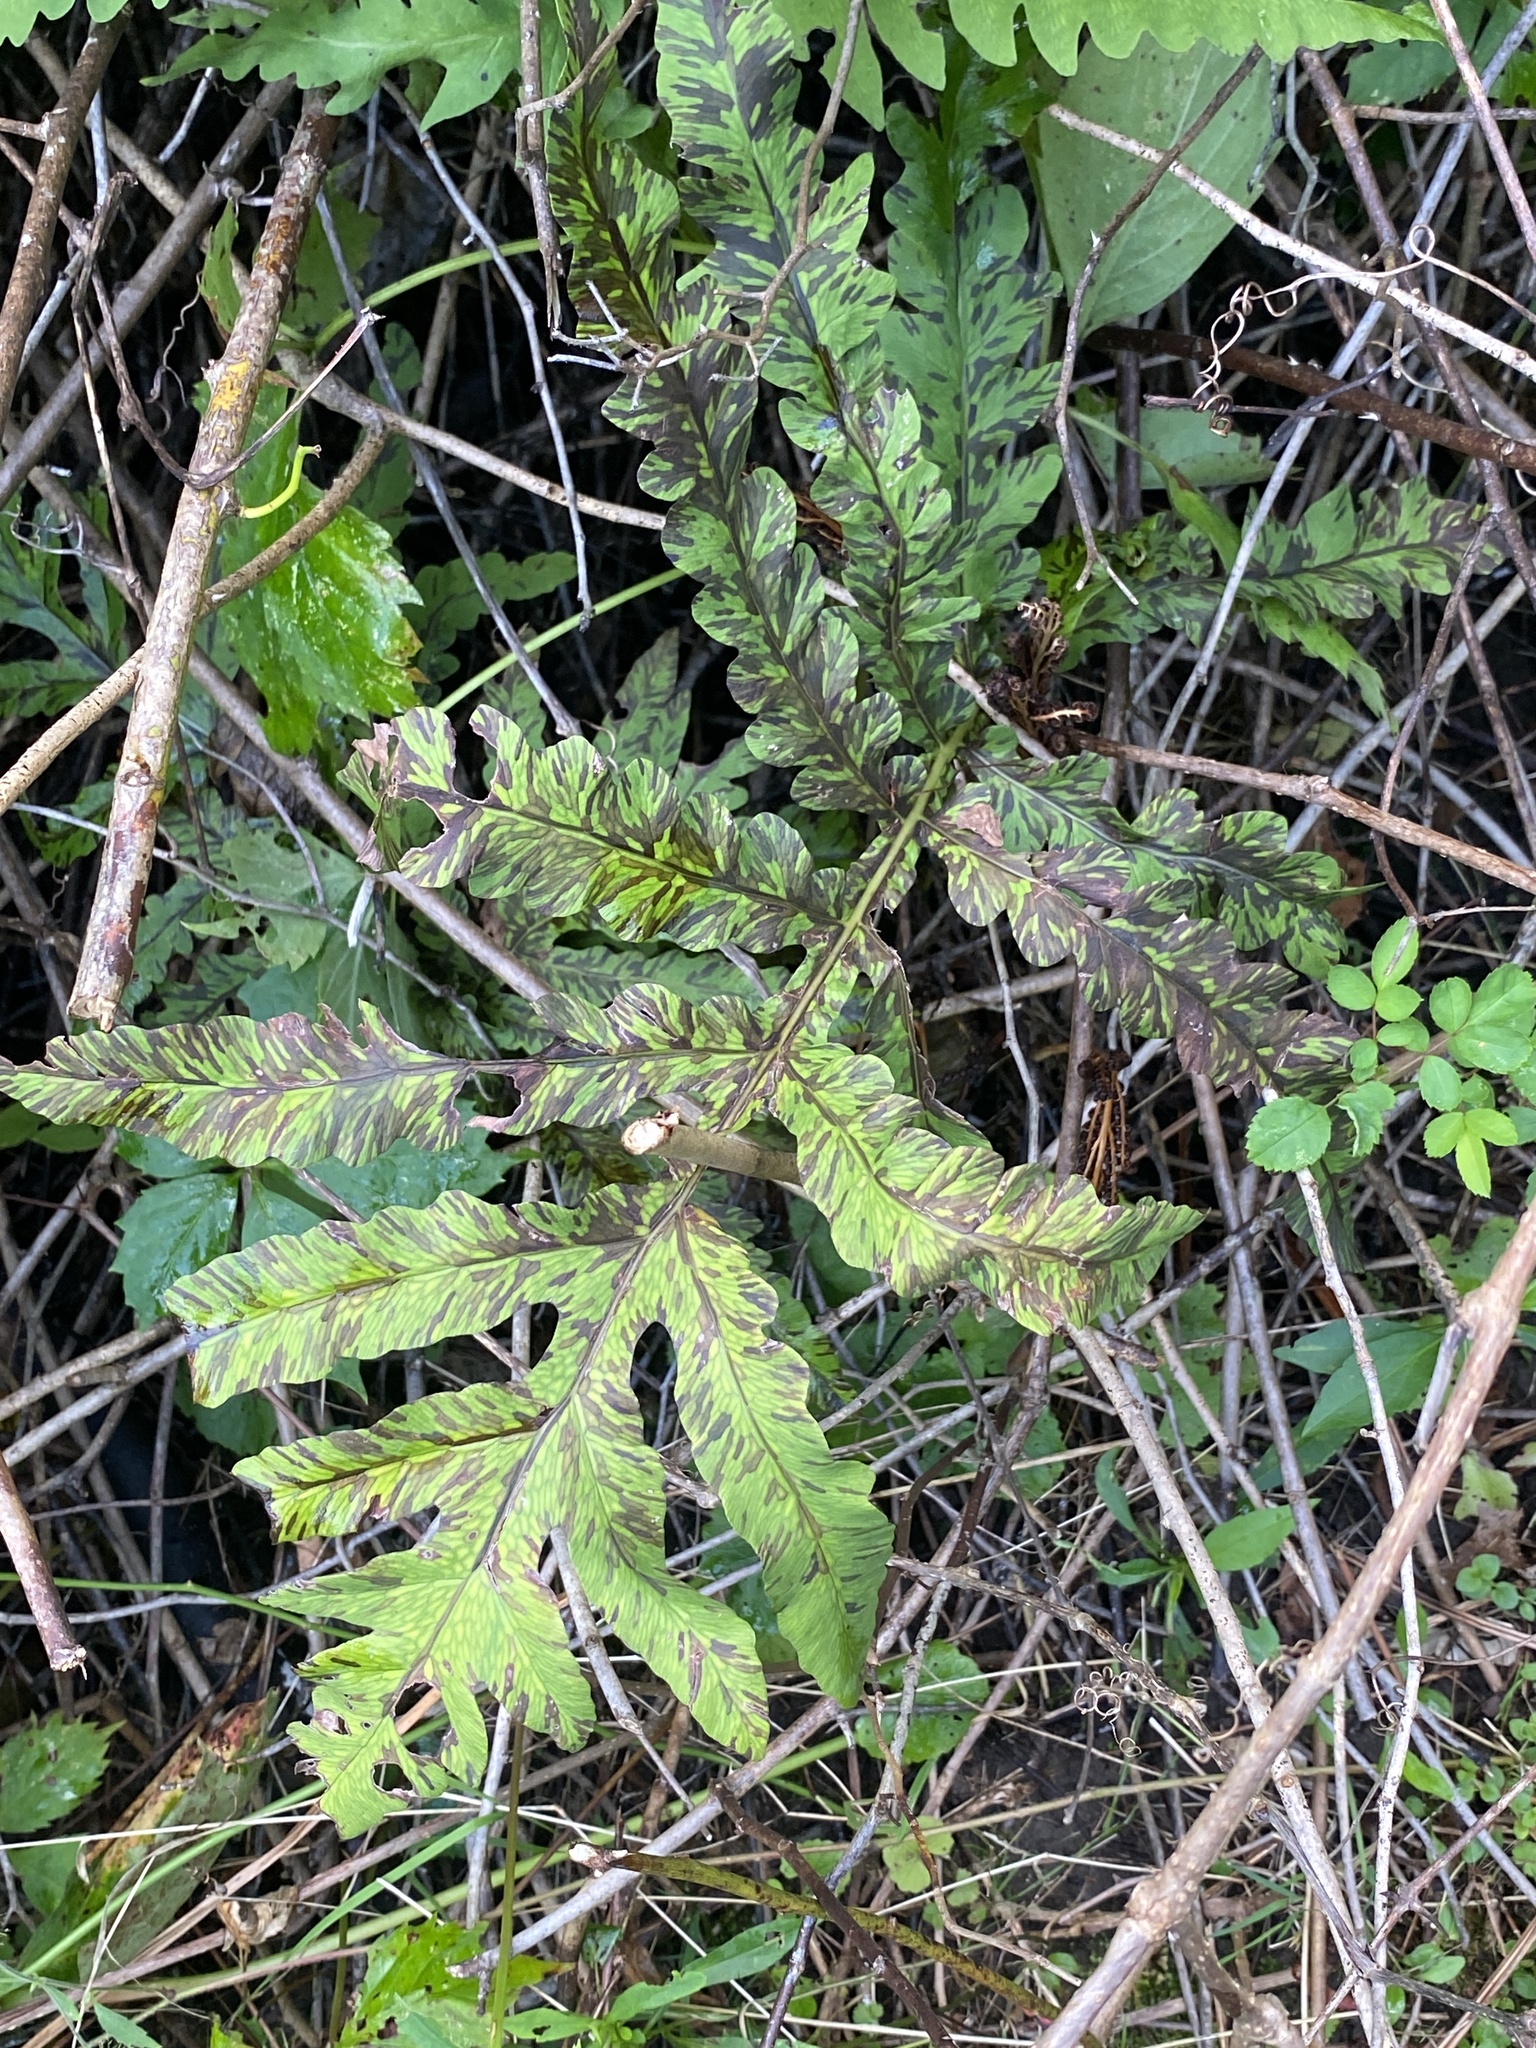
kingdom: Plantae
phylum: Tracheophyta
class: Polypodiopsida
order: Polypodiales
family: Onocleaceae
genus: Onoclea
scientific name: Onoclea sensibilis
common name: Sensitive fern
